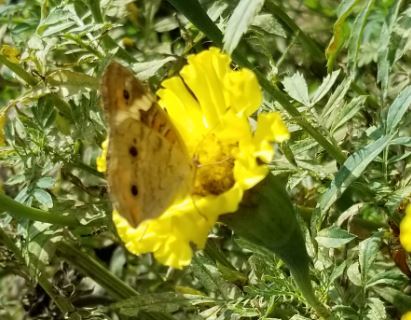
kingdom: Animalia
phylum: Arthropoda
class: Insecta
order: Lepidoptera
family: Nymphalidae
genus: Junonia
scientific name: Junonia coenia
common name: Common buckeye
